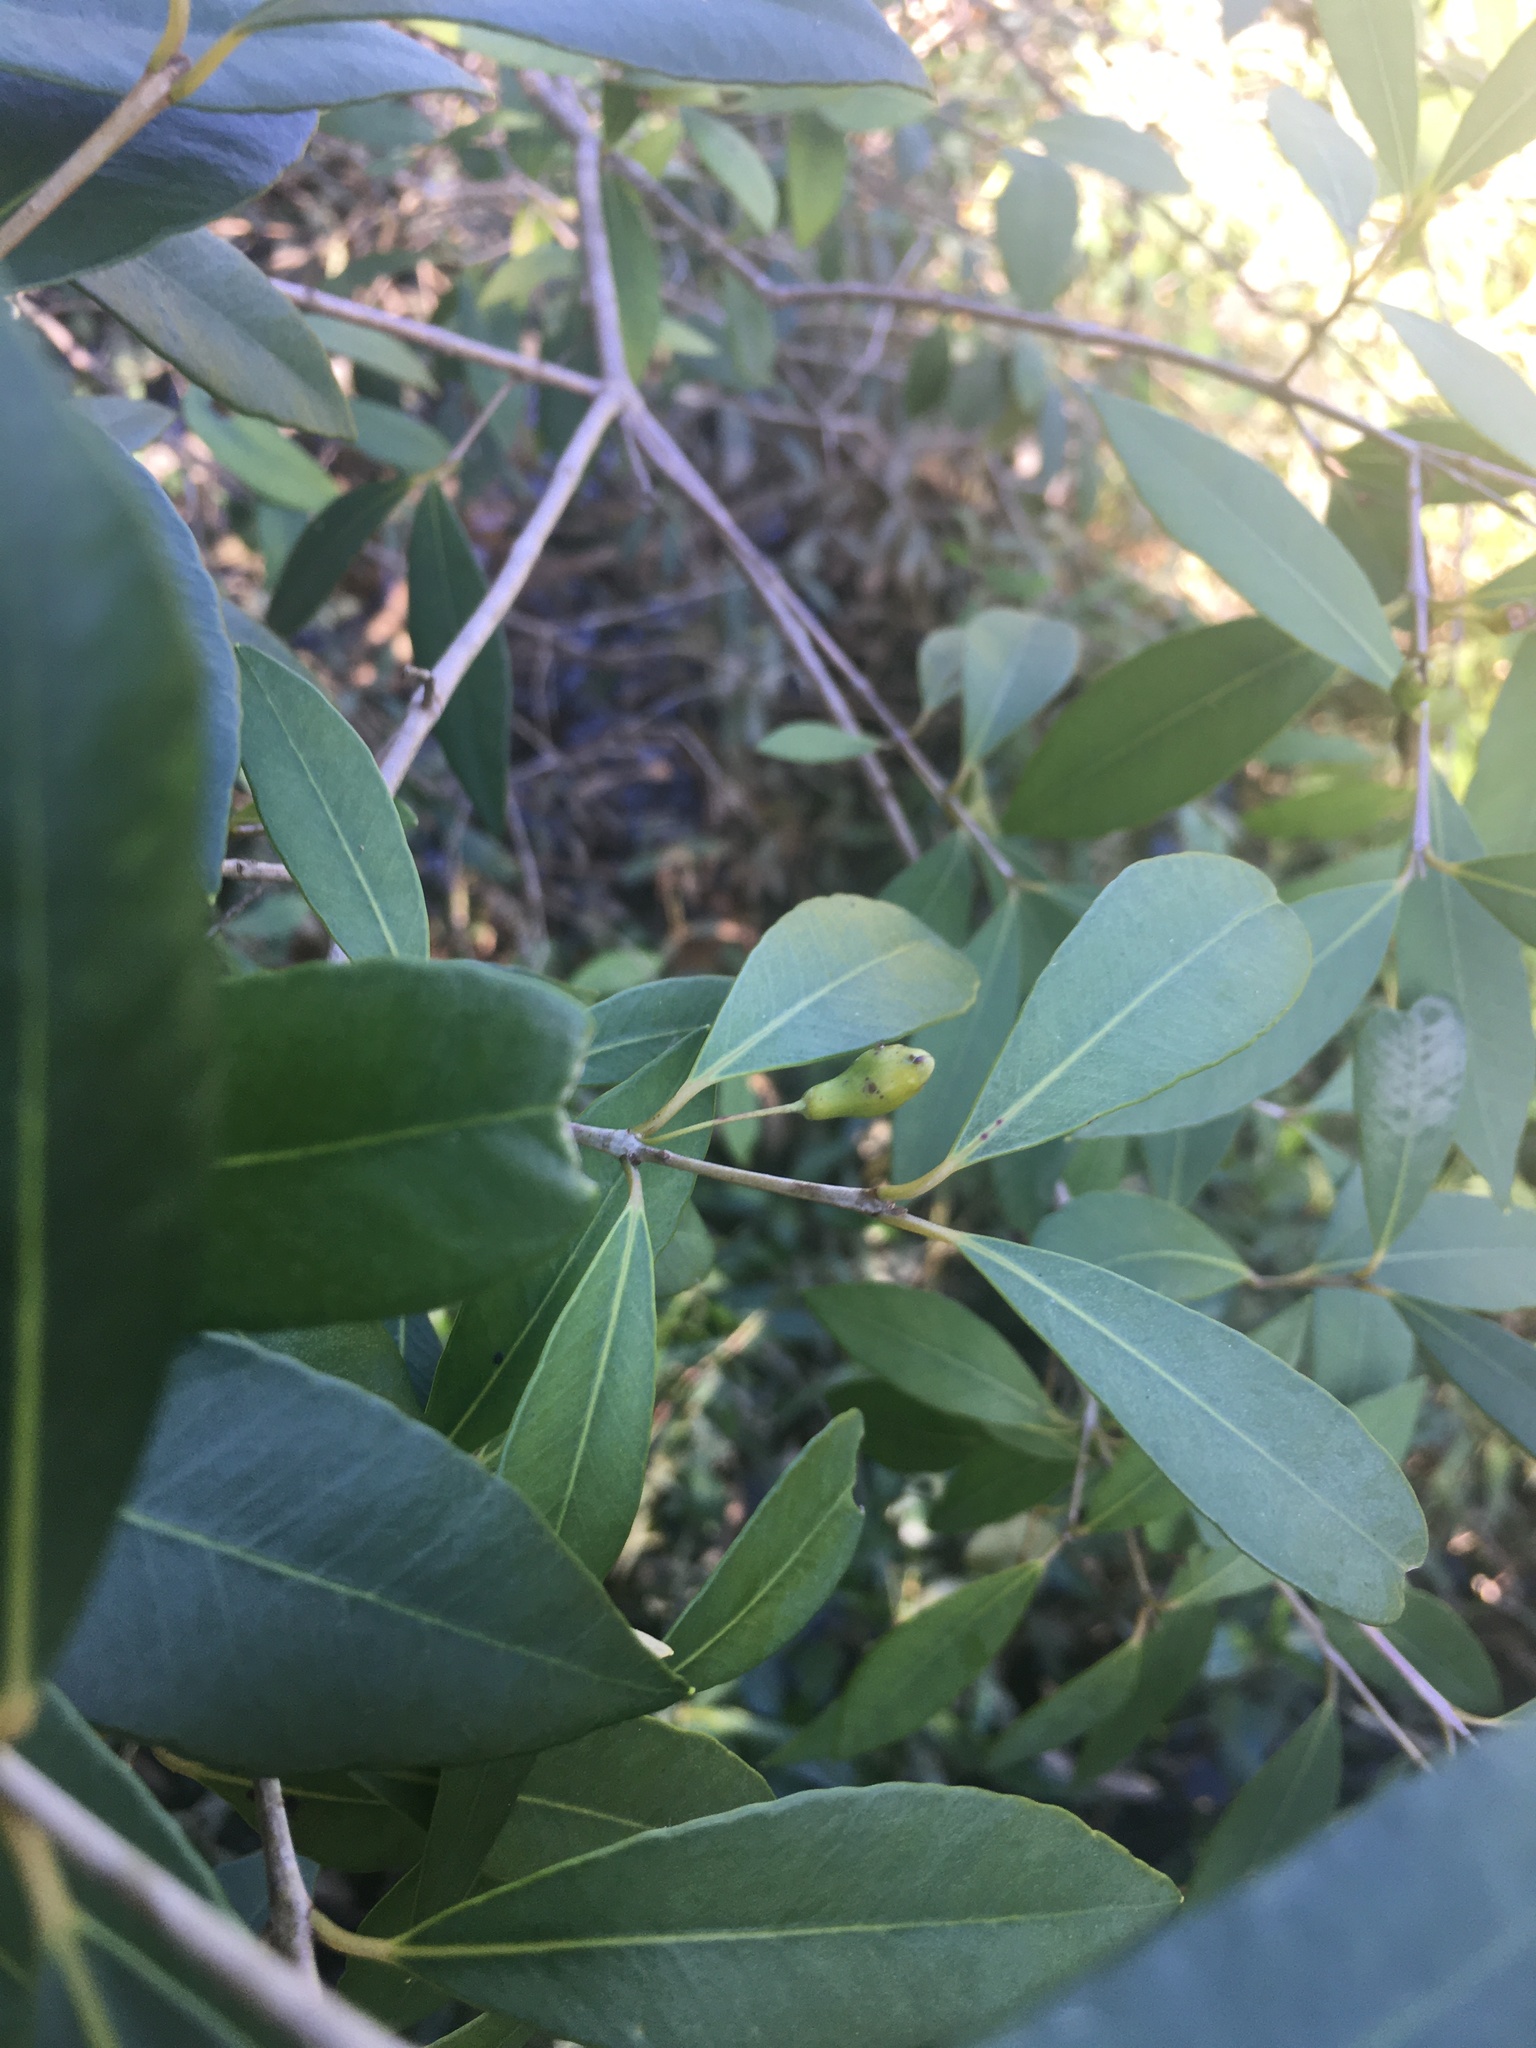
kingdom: Plantae
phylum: Tracheophyta
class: Magnoliopsida
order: Myrtales
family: Myrtaceae
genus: Myrceugenia
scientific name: Myrceugenia glaucescens
